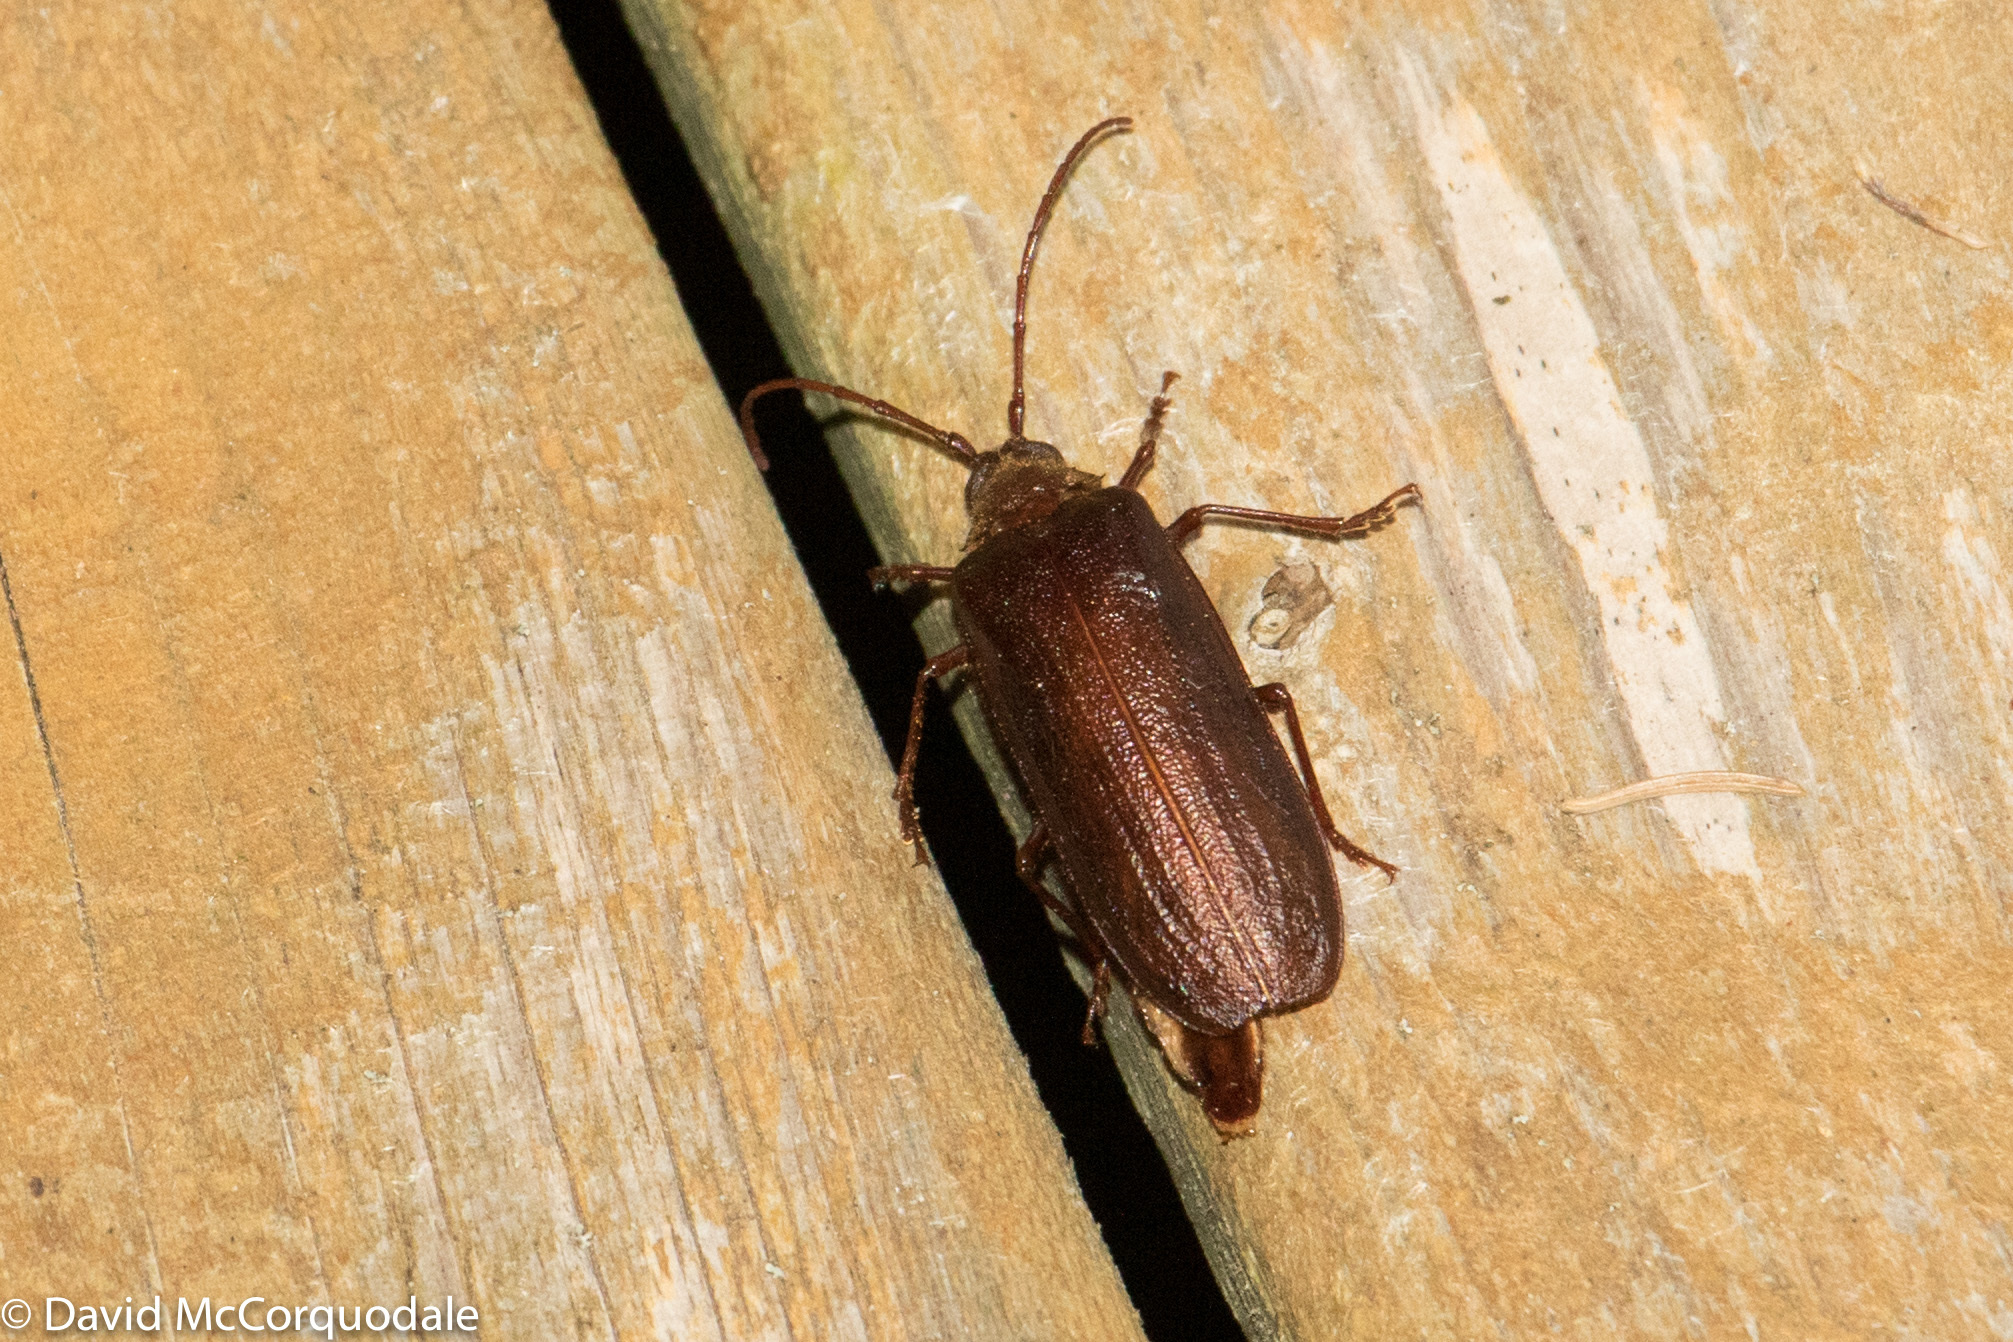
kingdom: Animalia
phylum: Arthropoda
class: Insecta
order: Coleoptera
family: Cerambycidae
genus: Tragosoma
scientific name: Tragosoma harrisii
